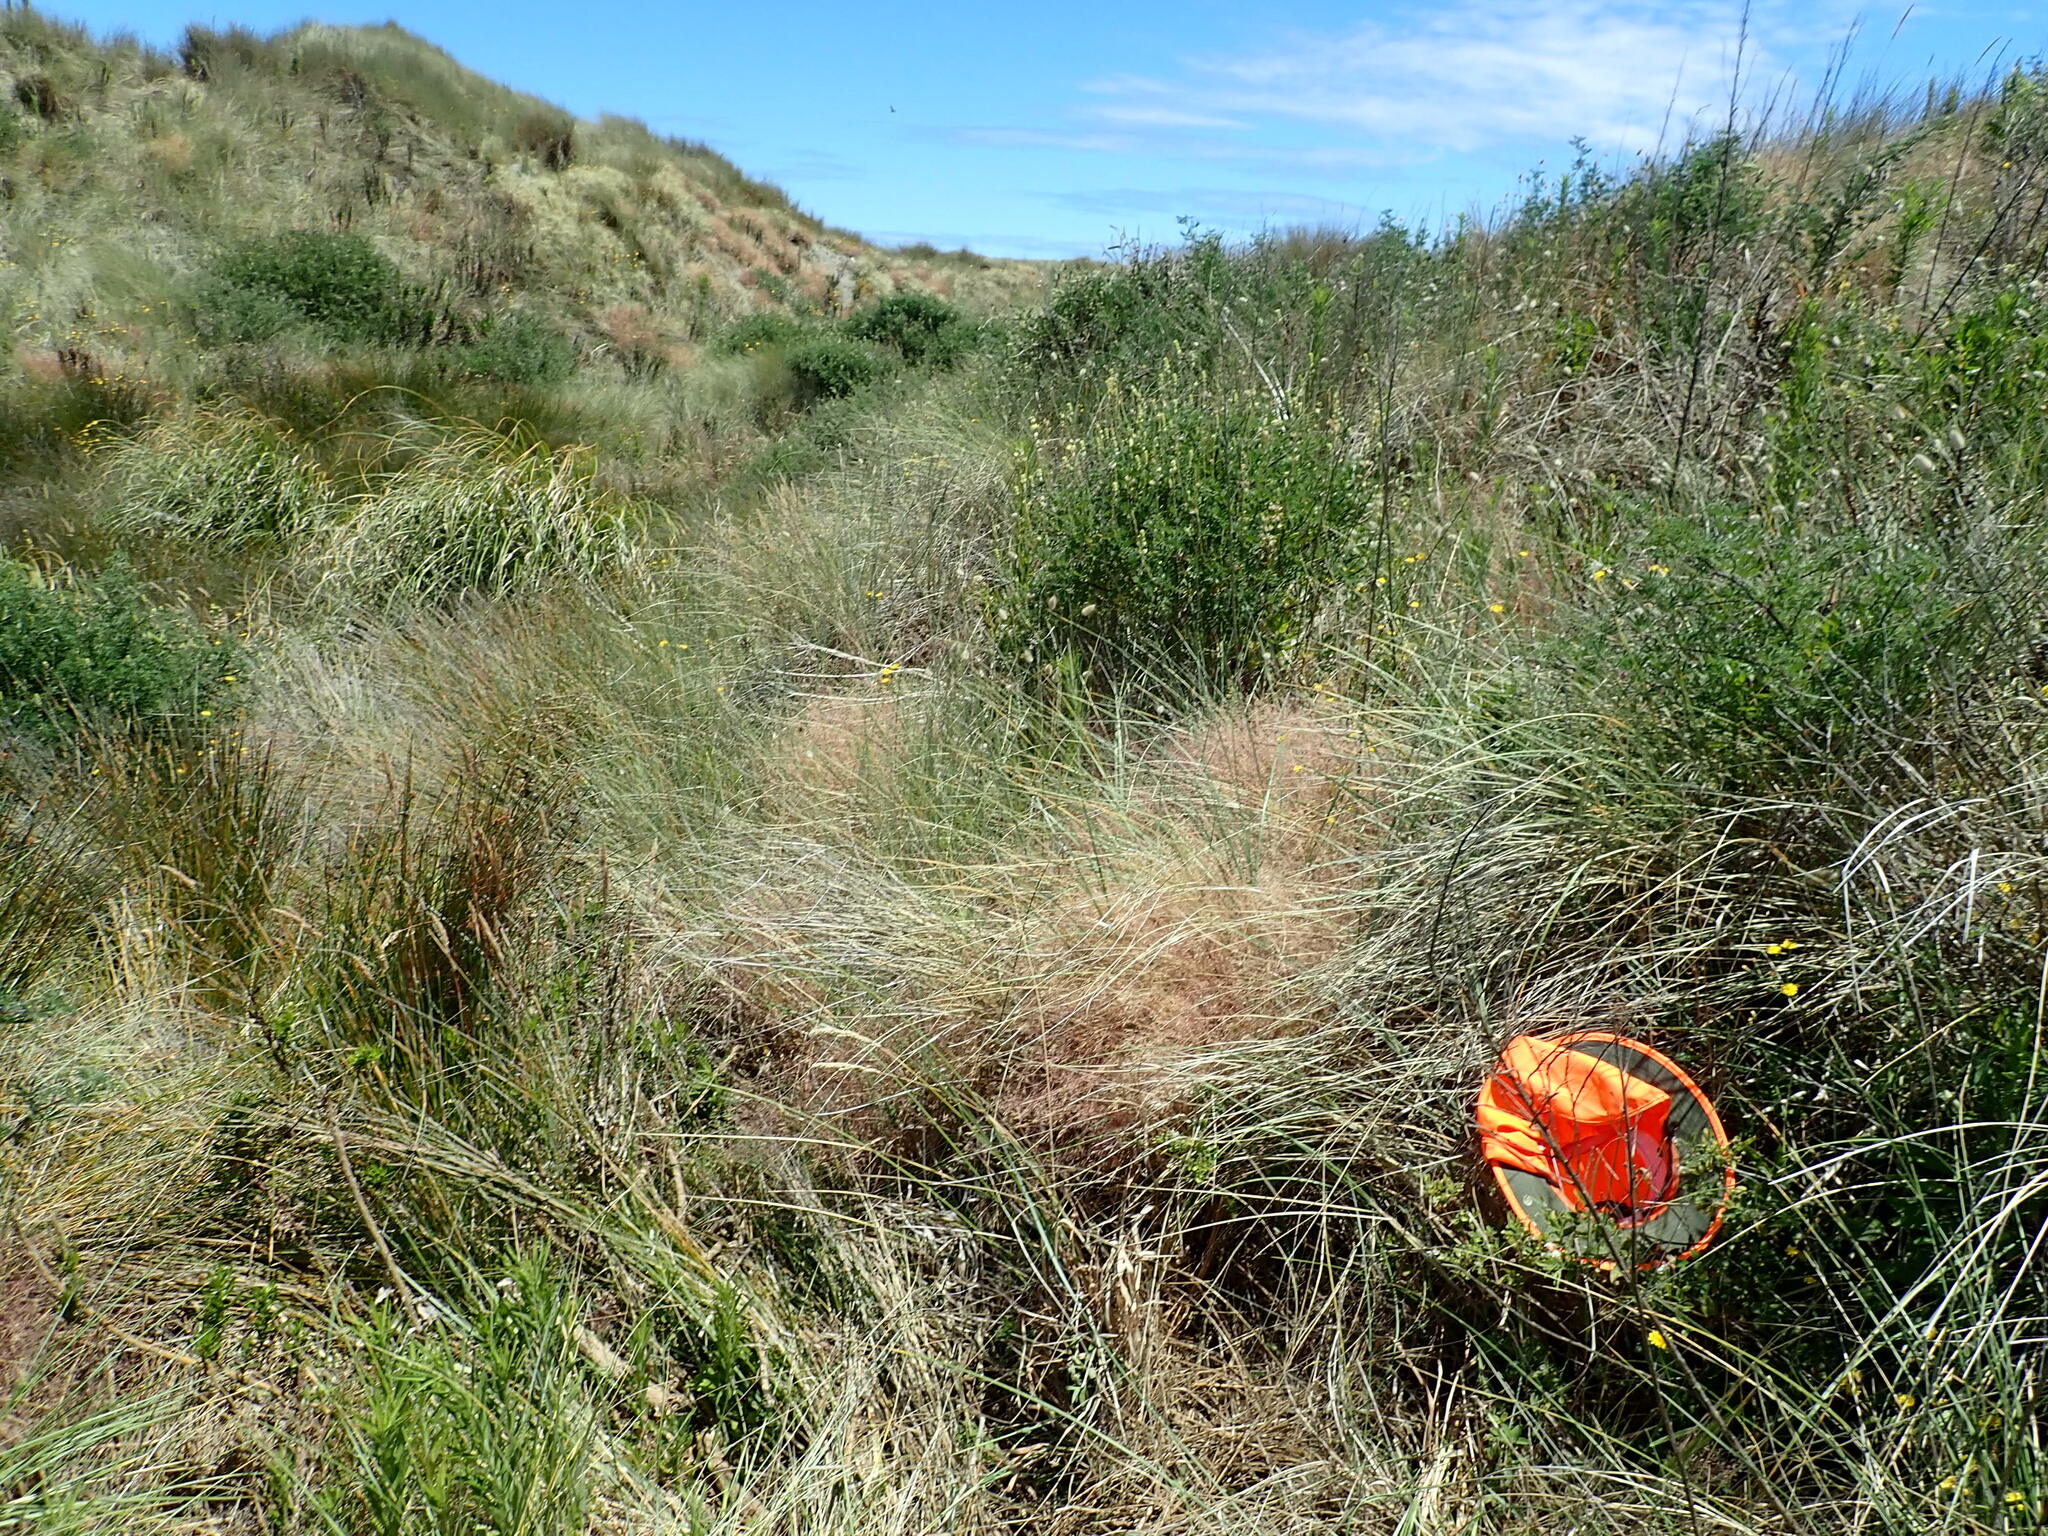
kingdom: Plantae
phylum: Tracheophyta
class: Magnoliopsida
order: Solanales
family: Solanaceae
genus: Solanum
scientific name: Solanum chenopodioides
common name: Tall nightshade
